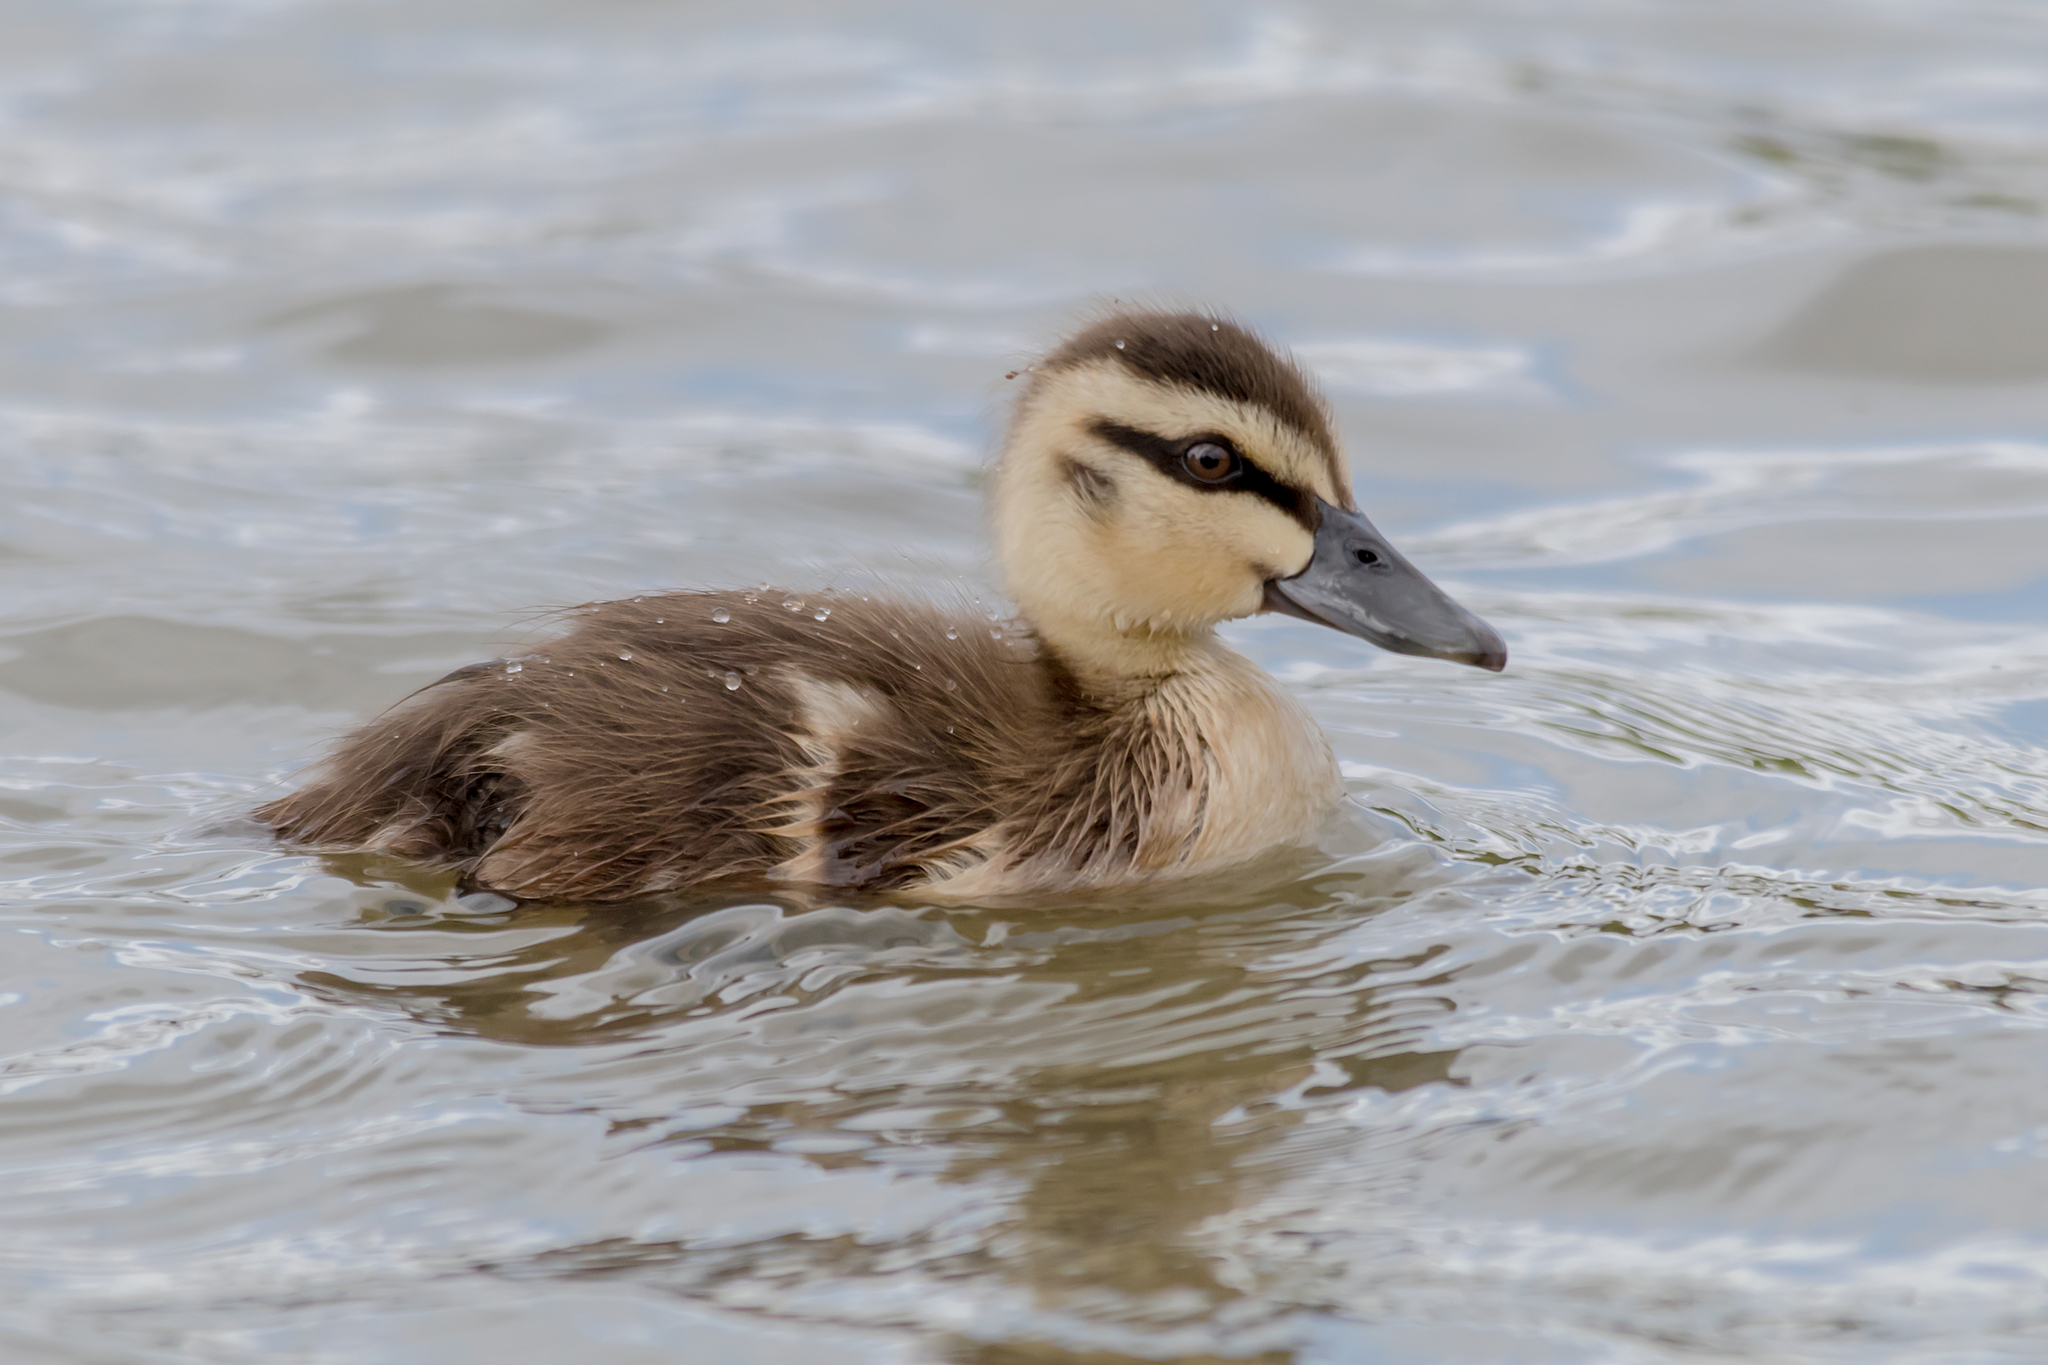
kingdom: Animalia
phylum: Chordata
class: Aves
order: Anseriformes
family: Anatidae
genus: Anas
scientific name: Anas superciliosa
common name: Pacific black duck
